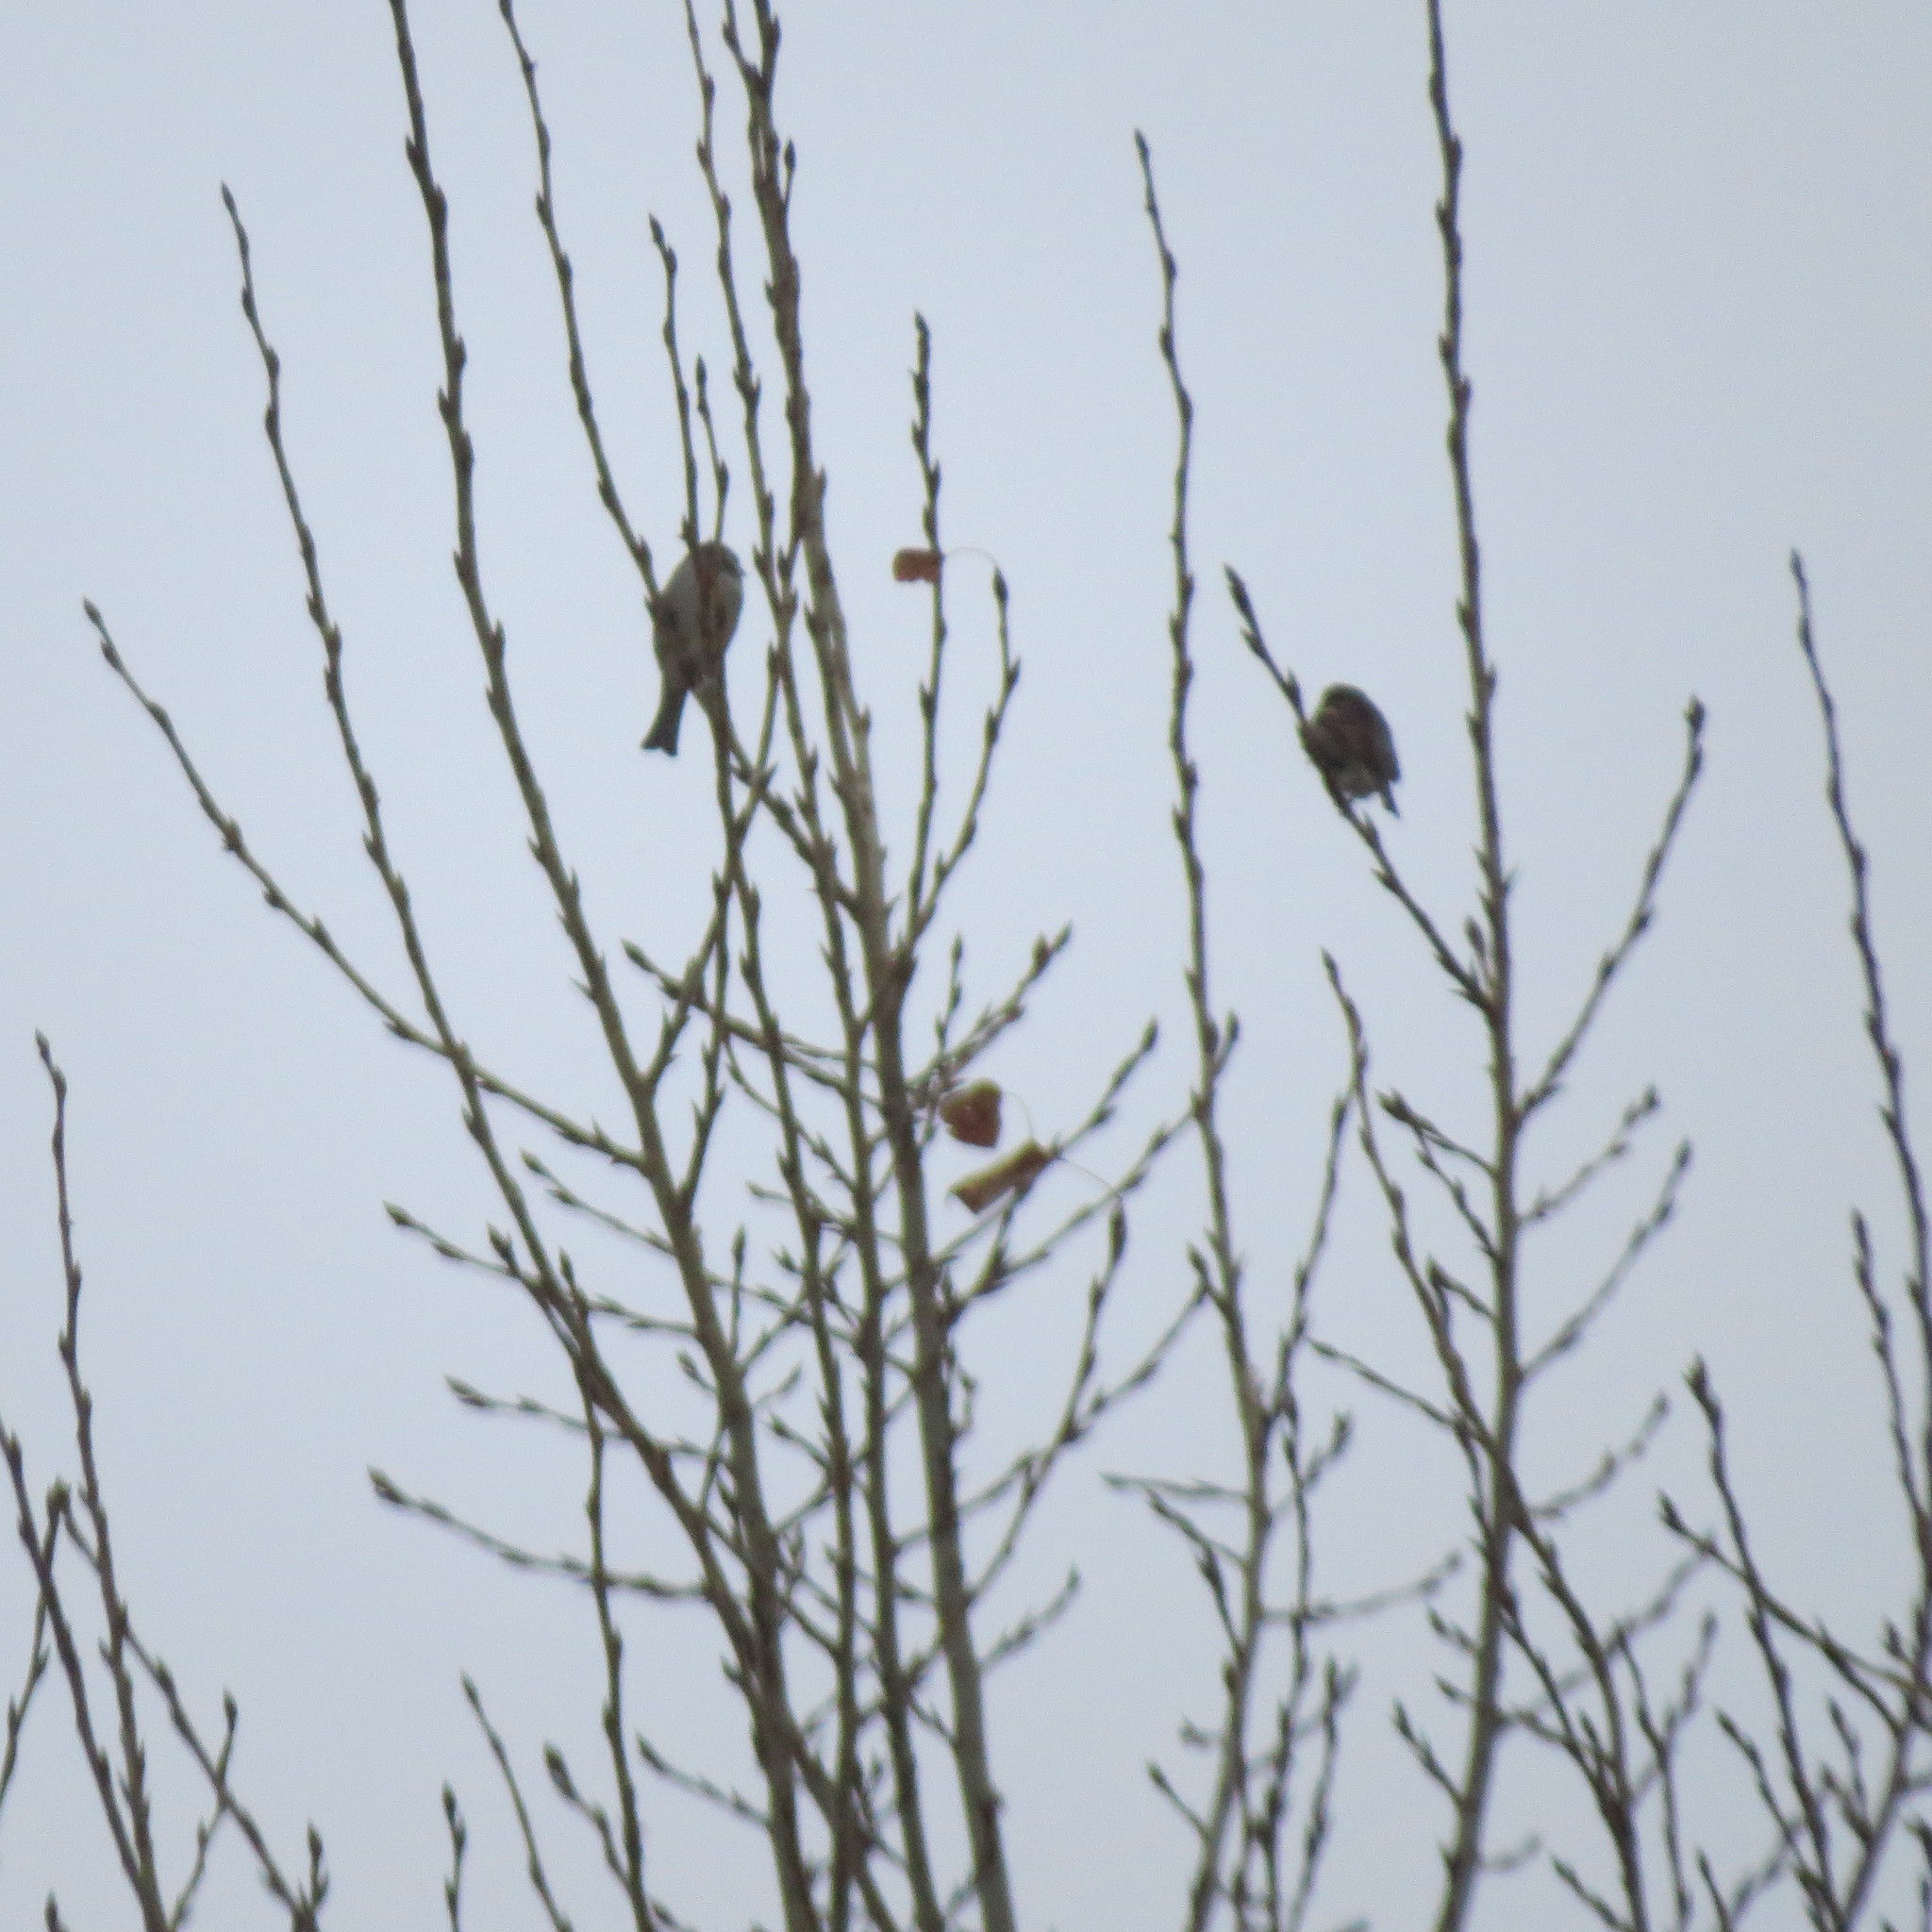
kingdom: Animalia
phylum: Chordata
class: Aves
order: Passeriformes
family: Passeridae
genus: Passer
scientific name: Passer domesticus
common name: House sparrow
